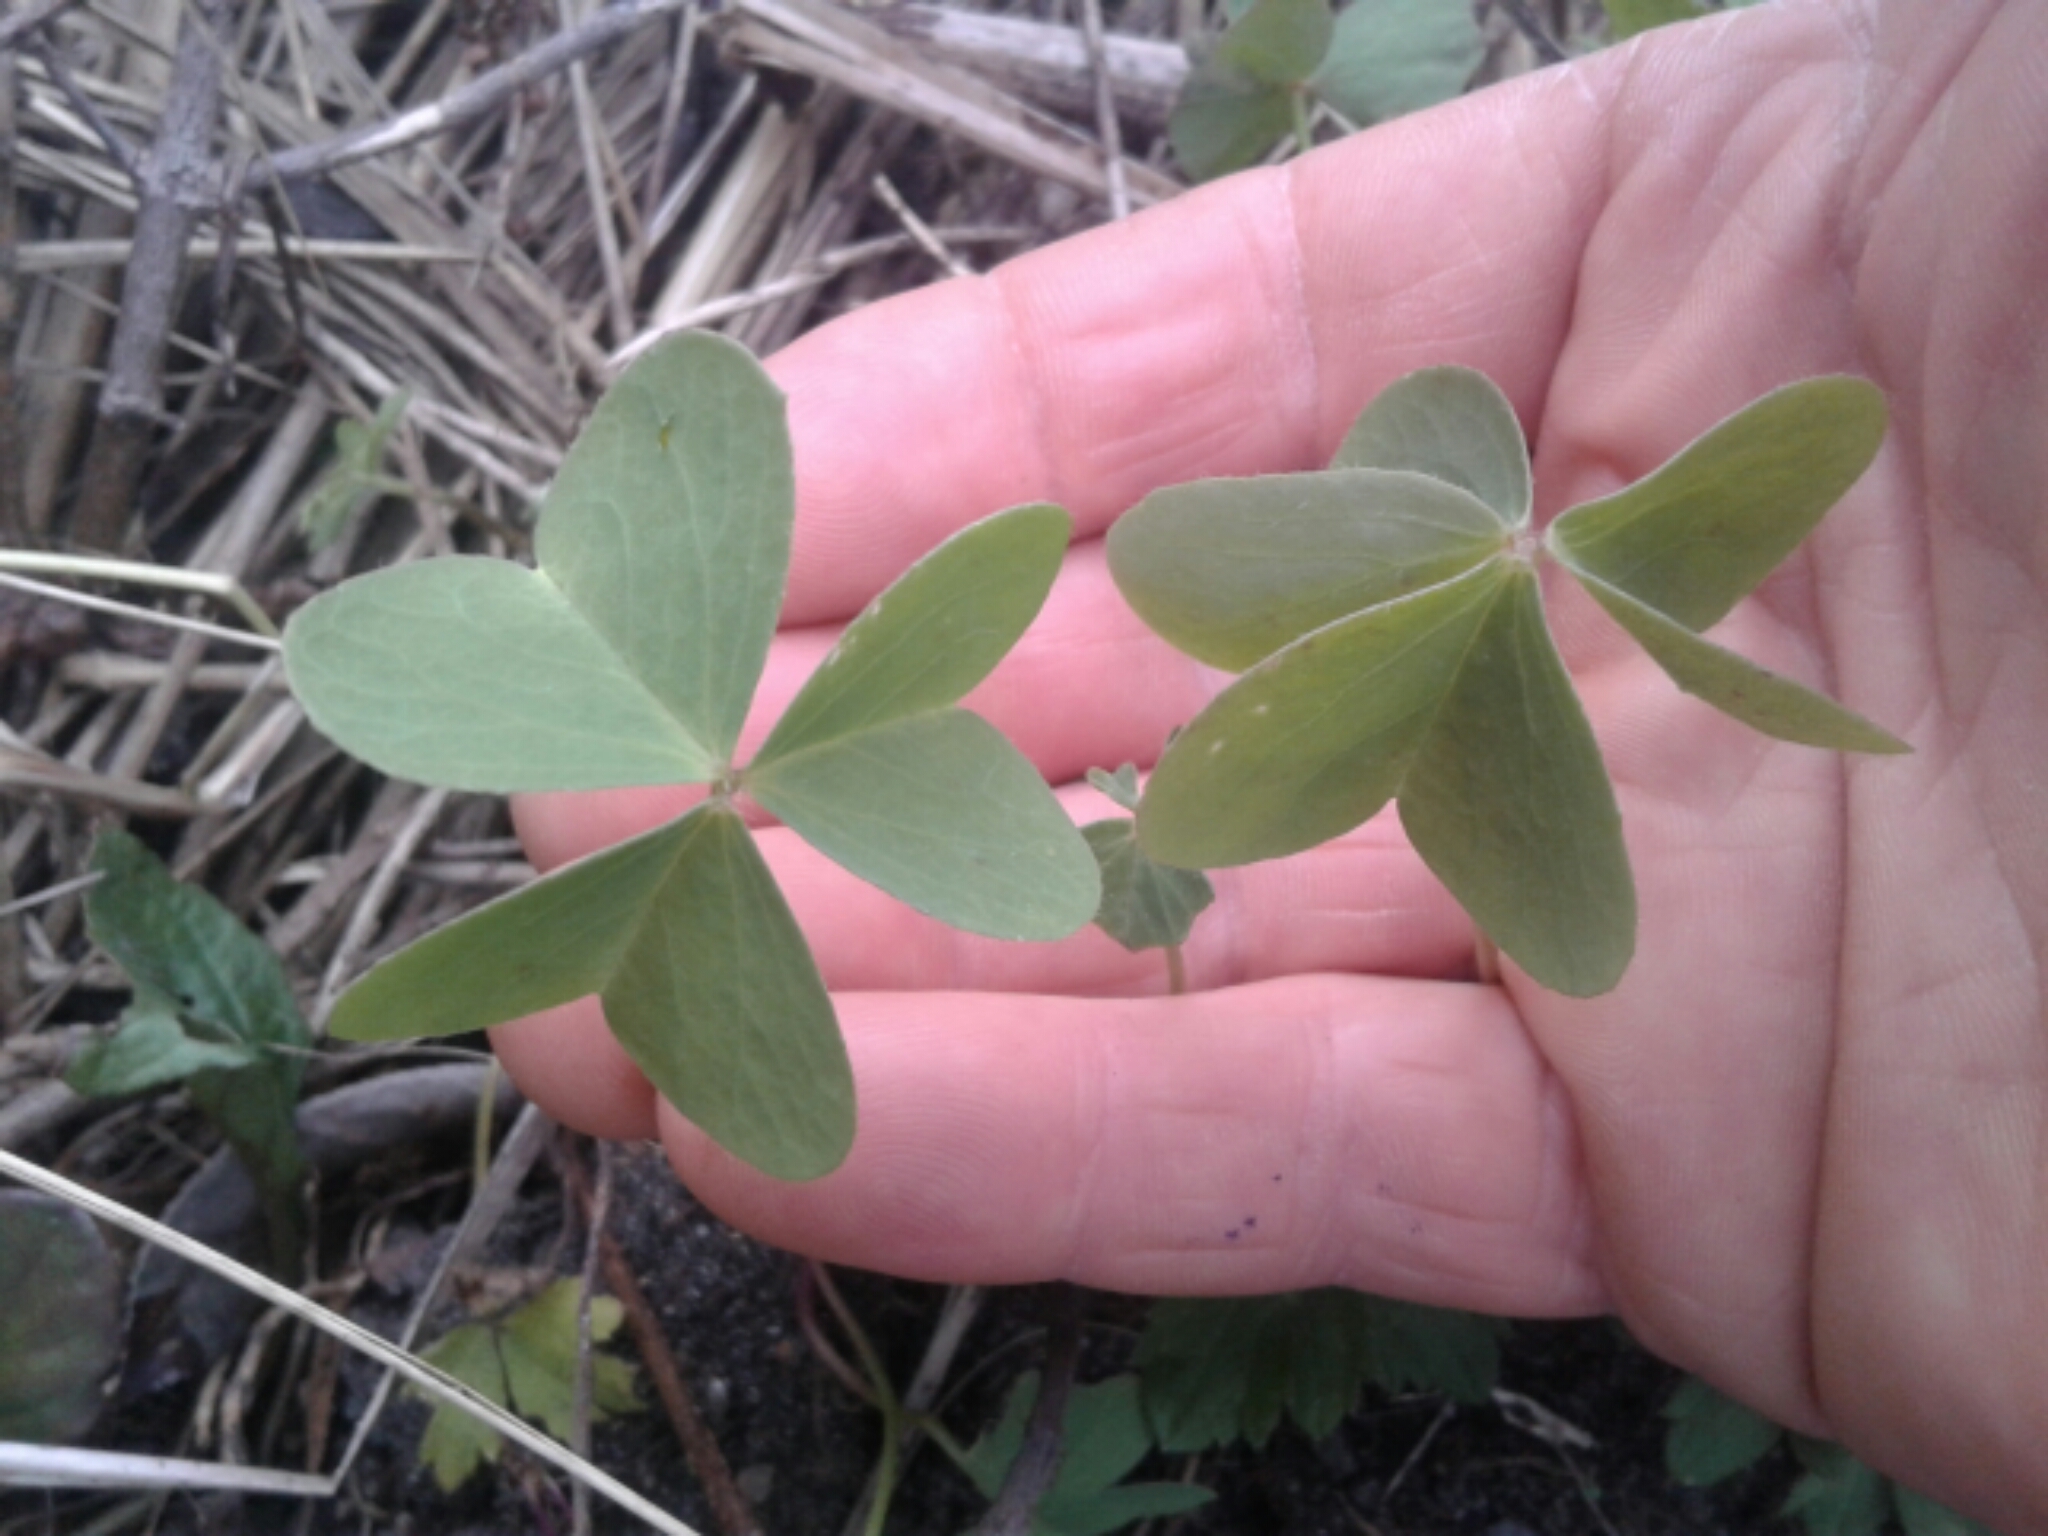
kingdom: Plantae
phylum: Tracheophyta
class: Magnoliopsida
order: Oxalidales
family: Oxalidaceae
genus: Oxalis
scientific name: Oxalis
